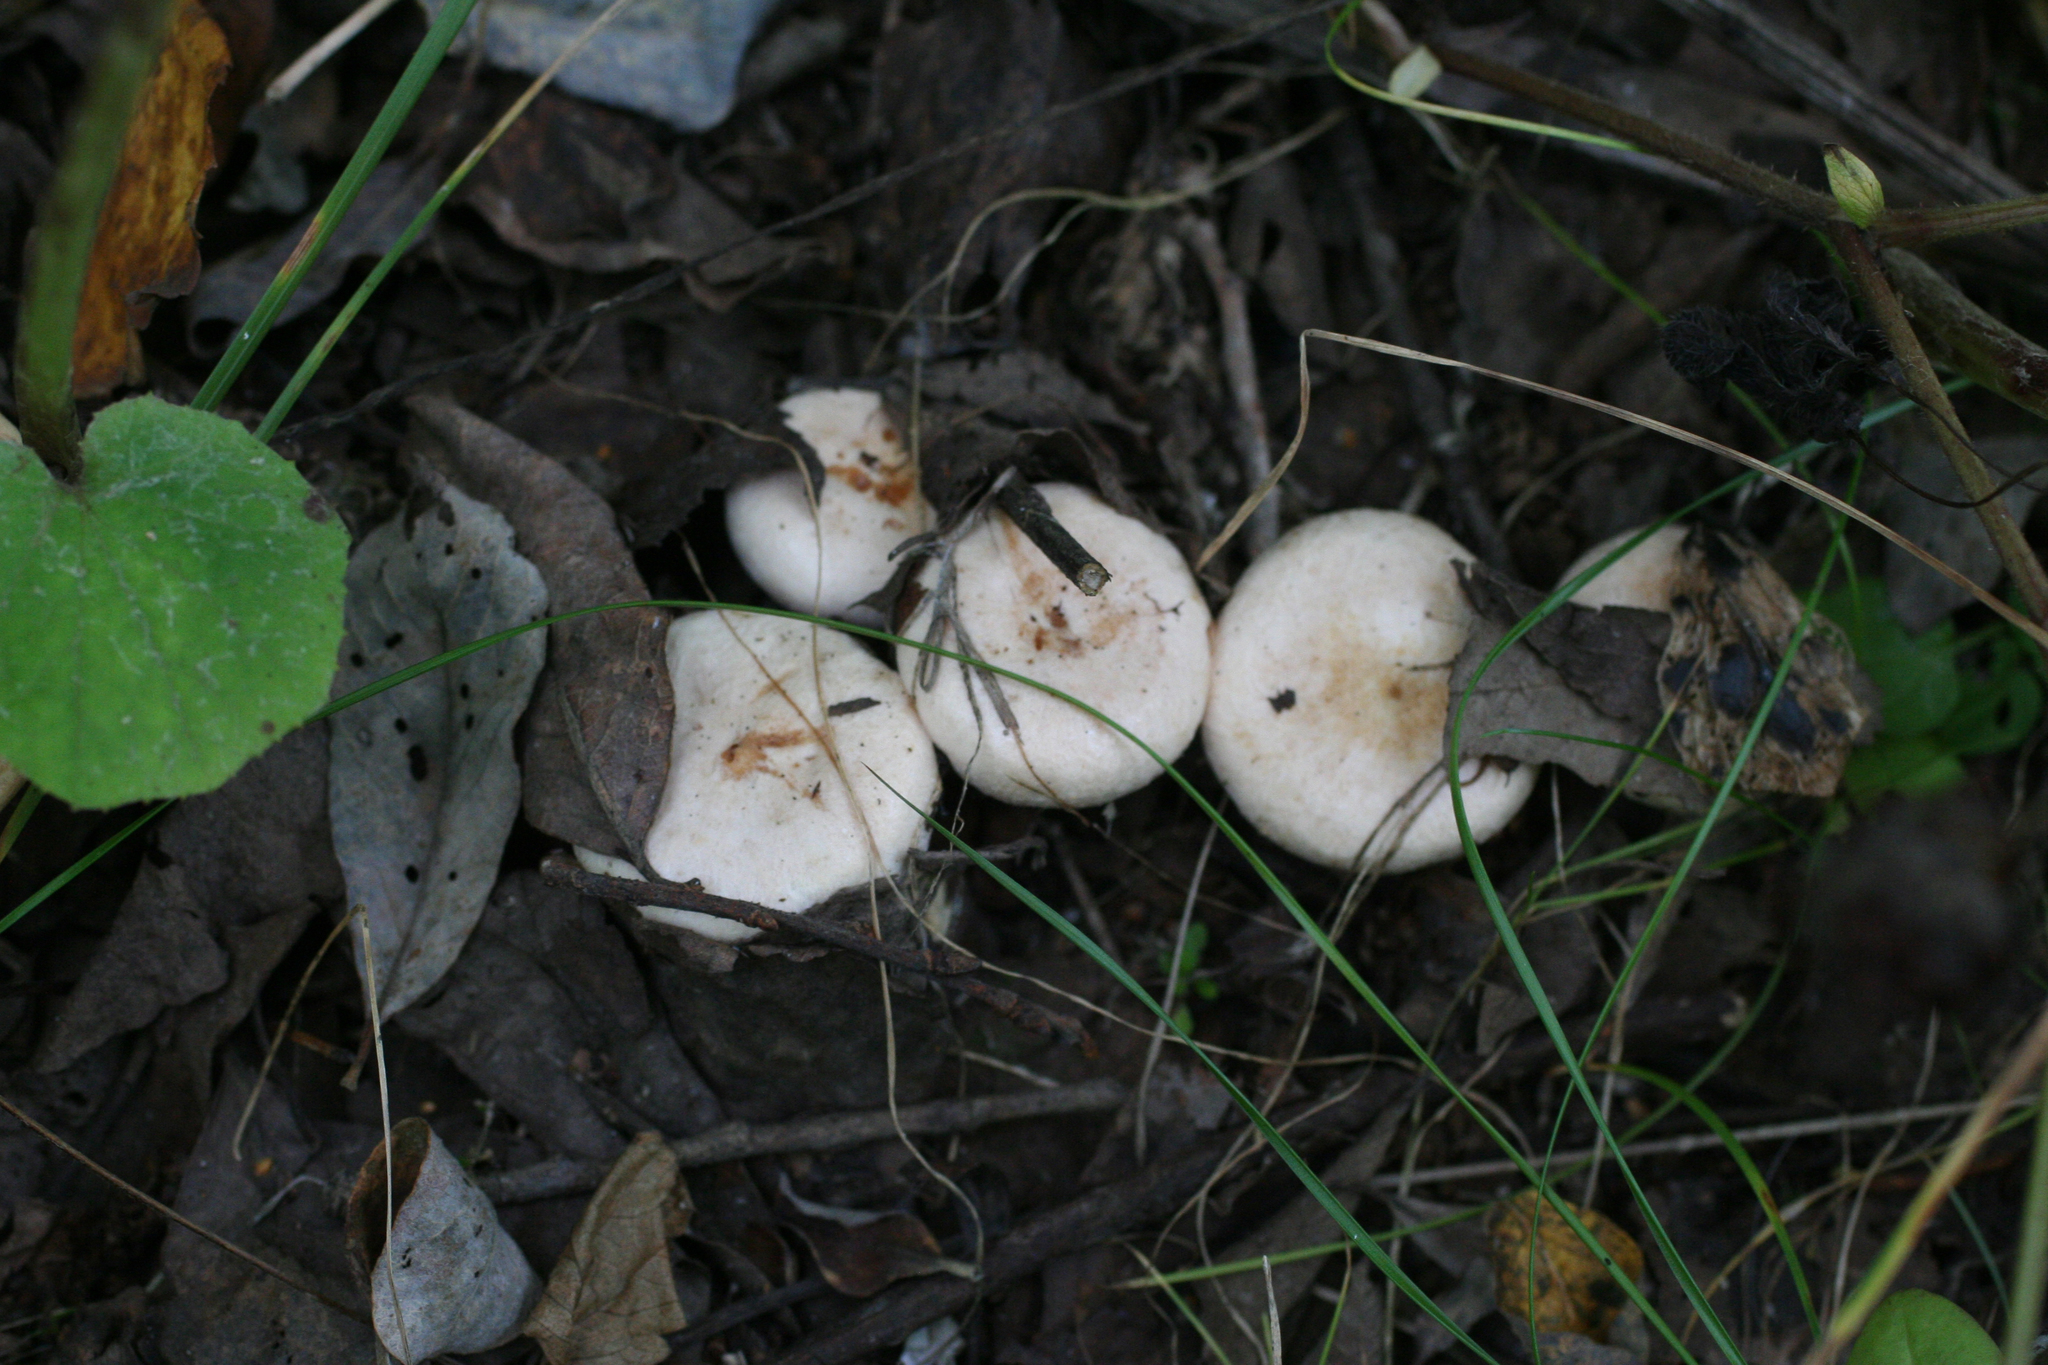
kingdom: Fungi
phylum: Basidiomycota
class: Agaricomycetes
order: Russulales
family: Russulaceae
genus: Lactarius
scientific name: Lactarius pubescens
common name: Bearded milkcap
